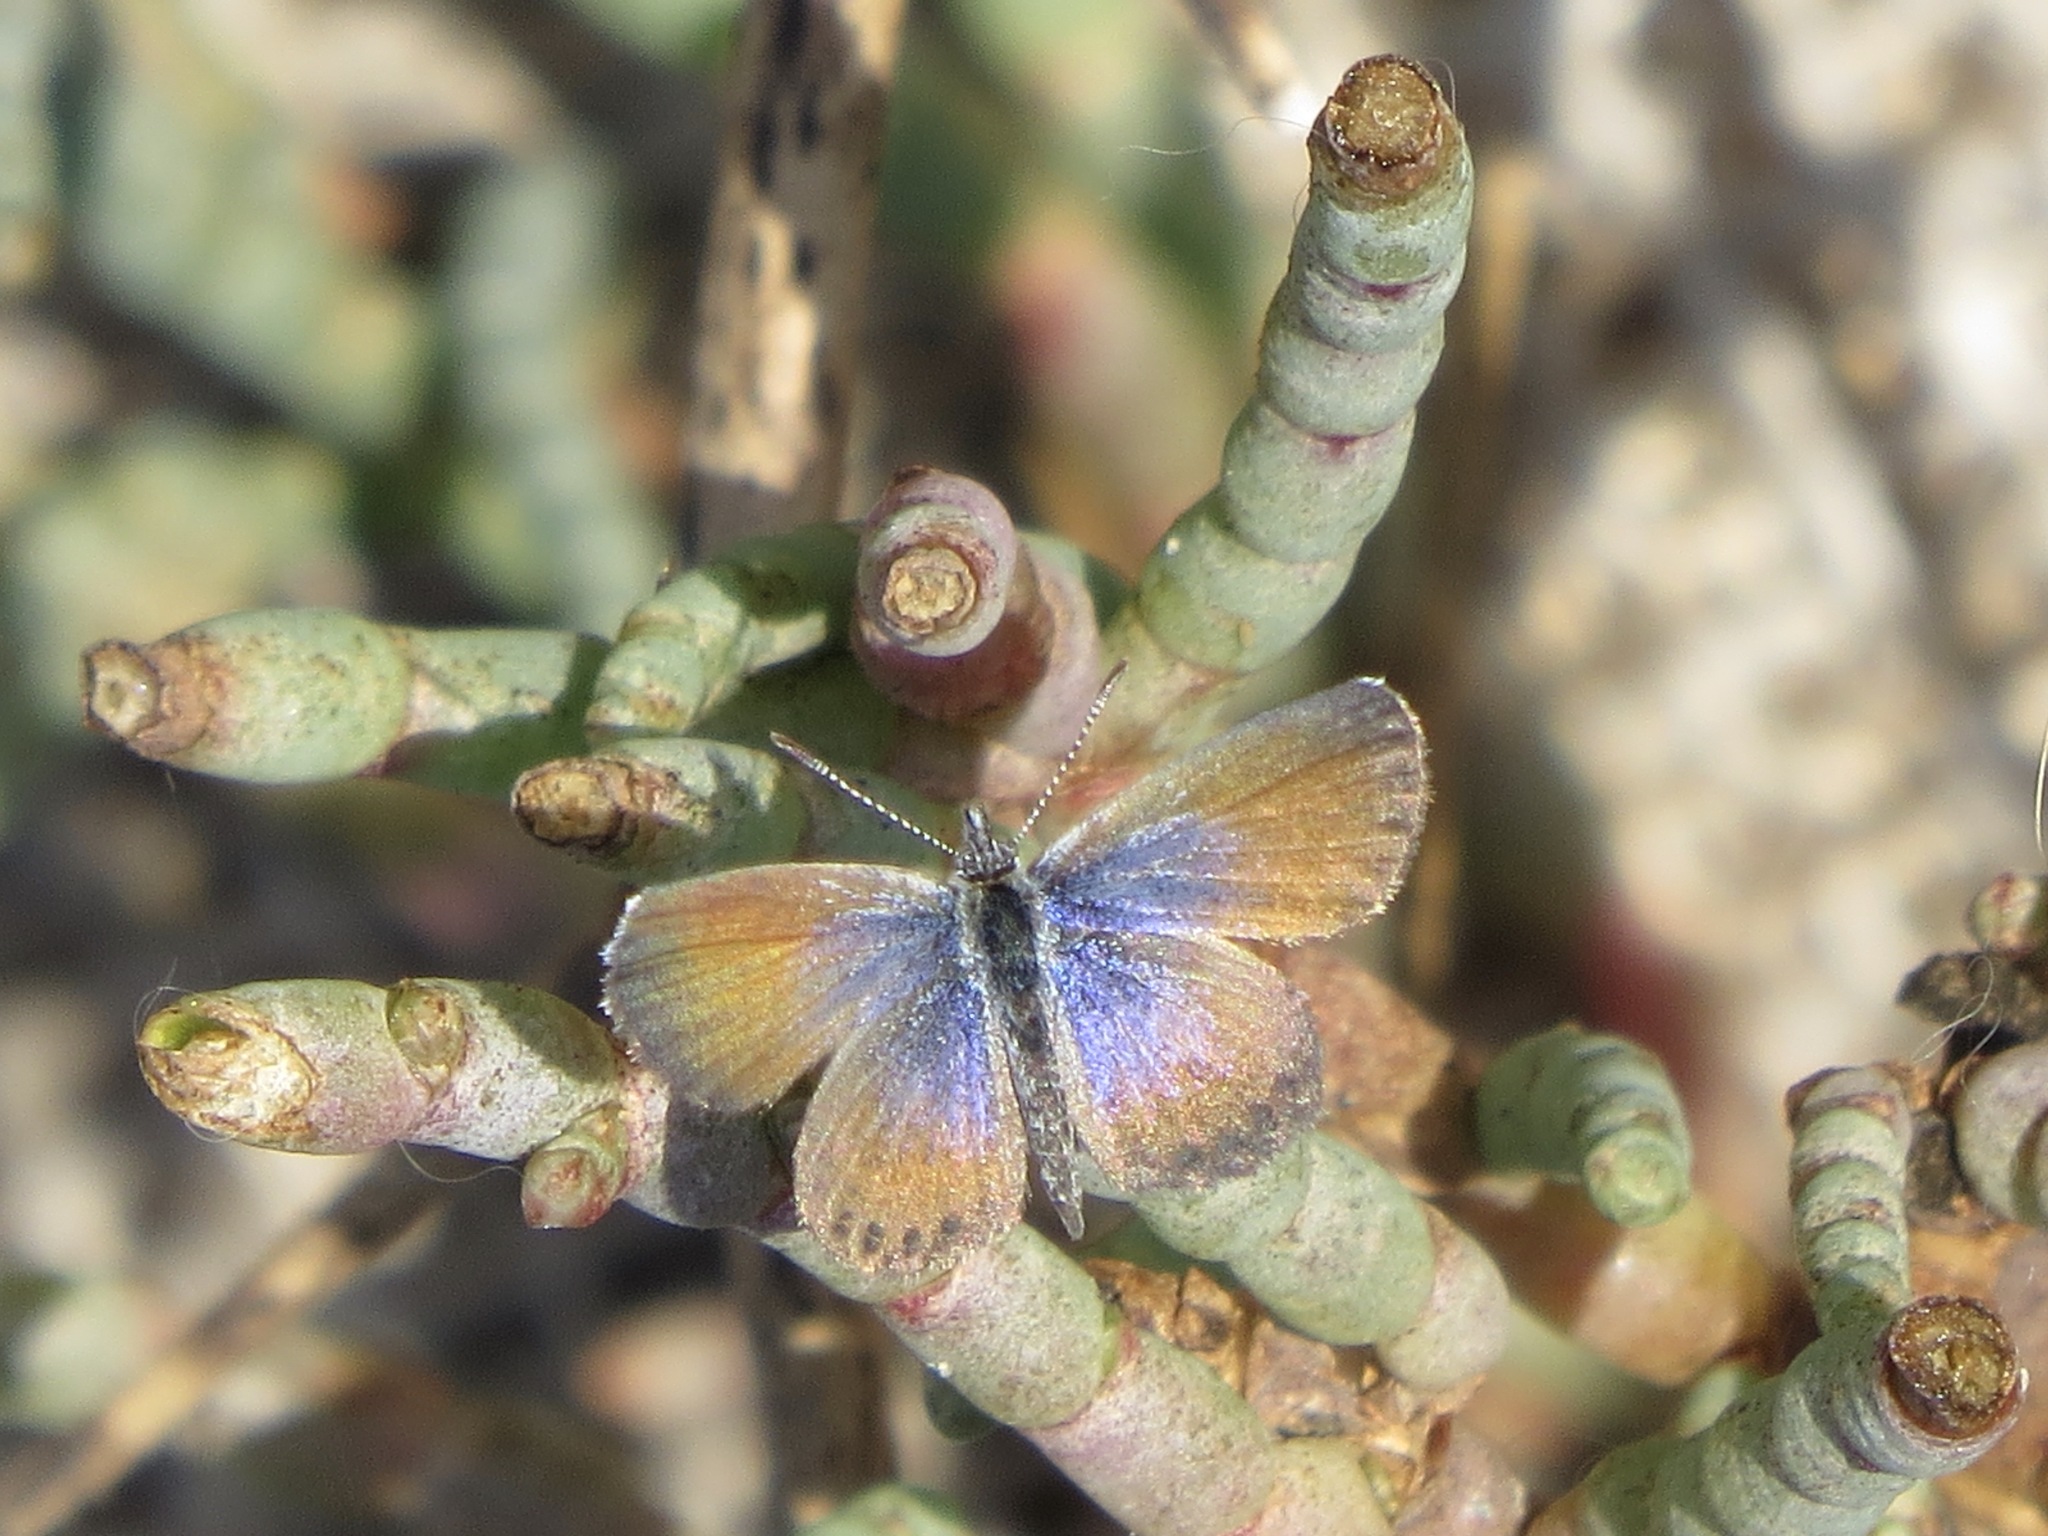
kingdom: Animalia
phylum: Arthropoda
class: Insecta
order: Lepidoptera
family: Lycaenidae
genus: Brephidium
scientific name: Brephidium exilis
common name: Pygmy blue
